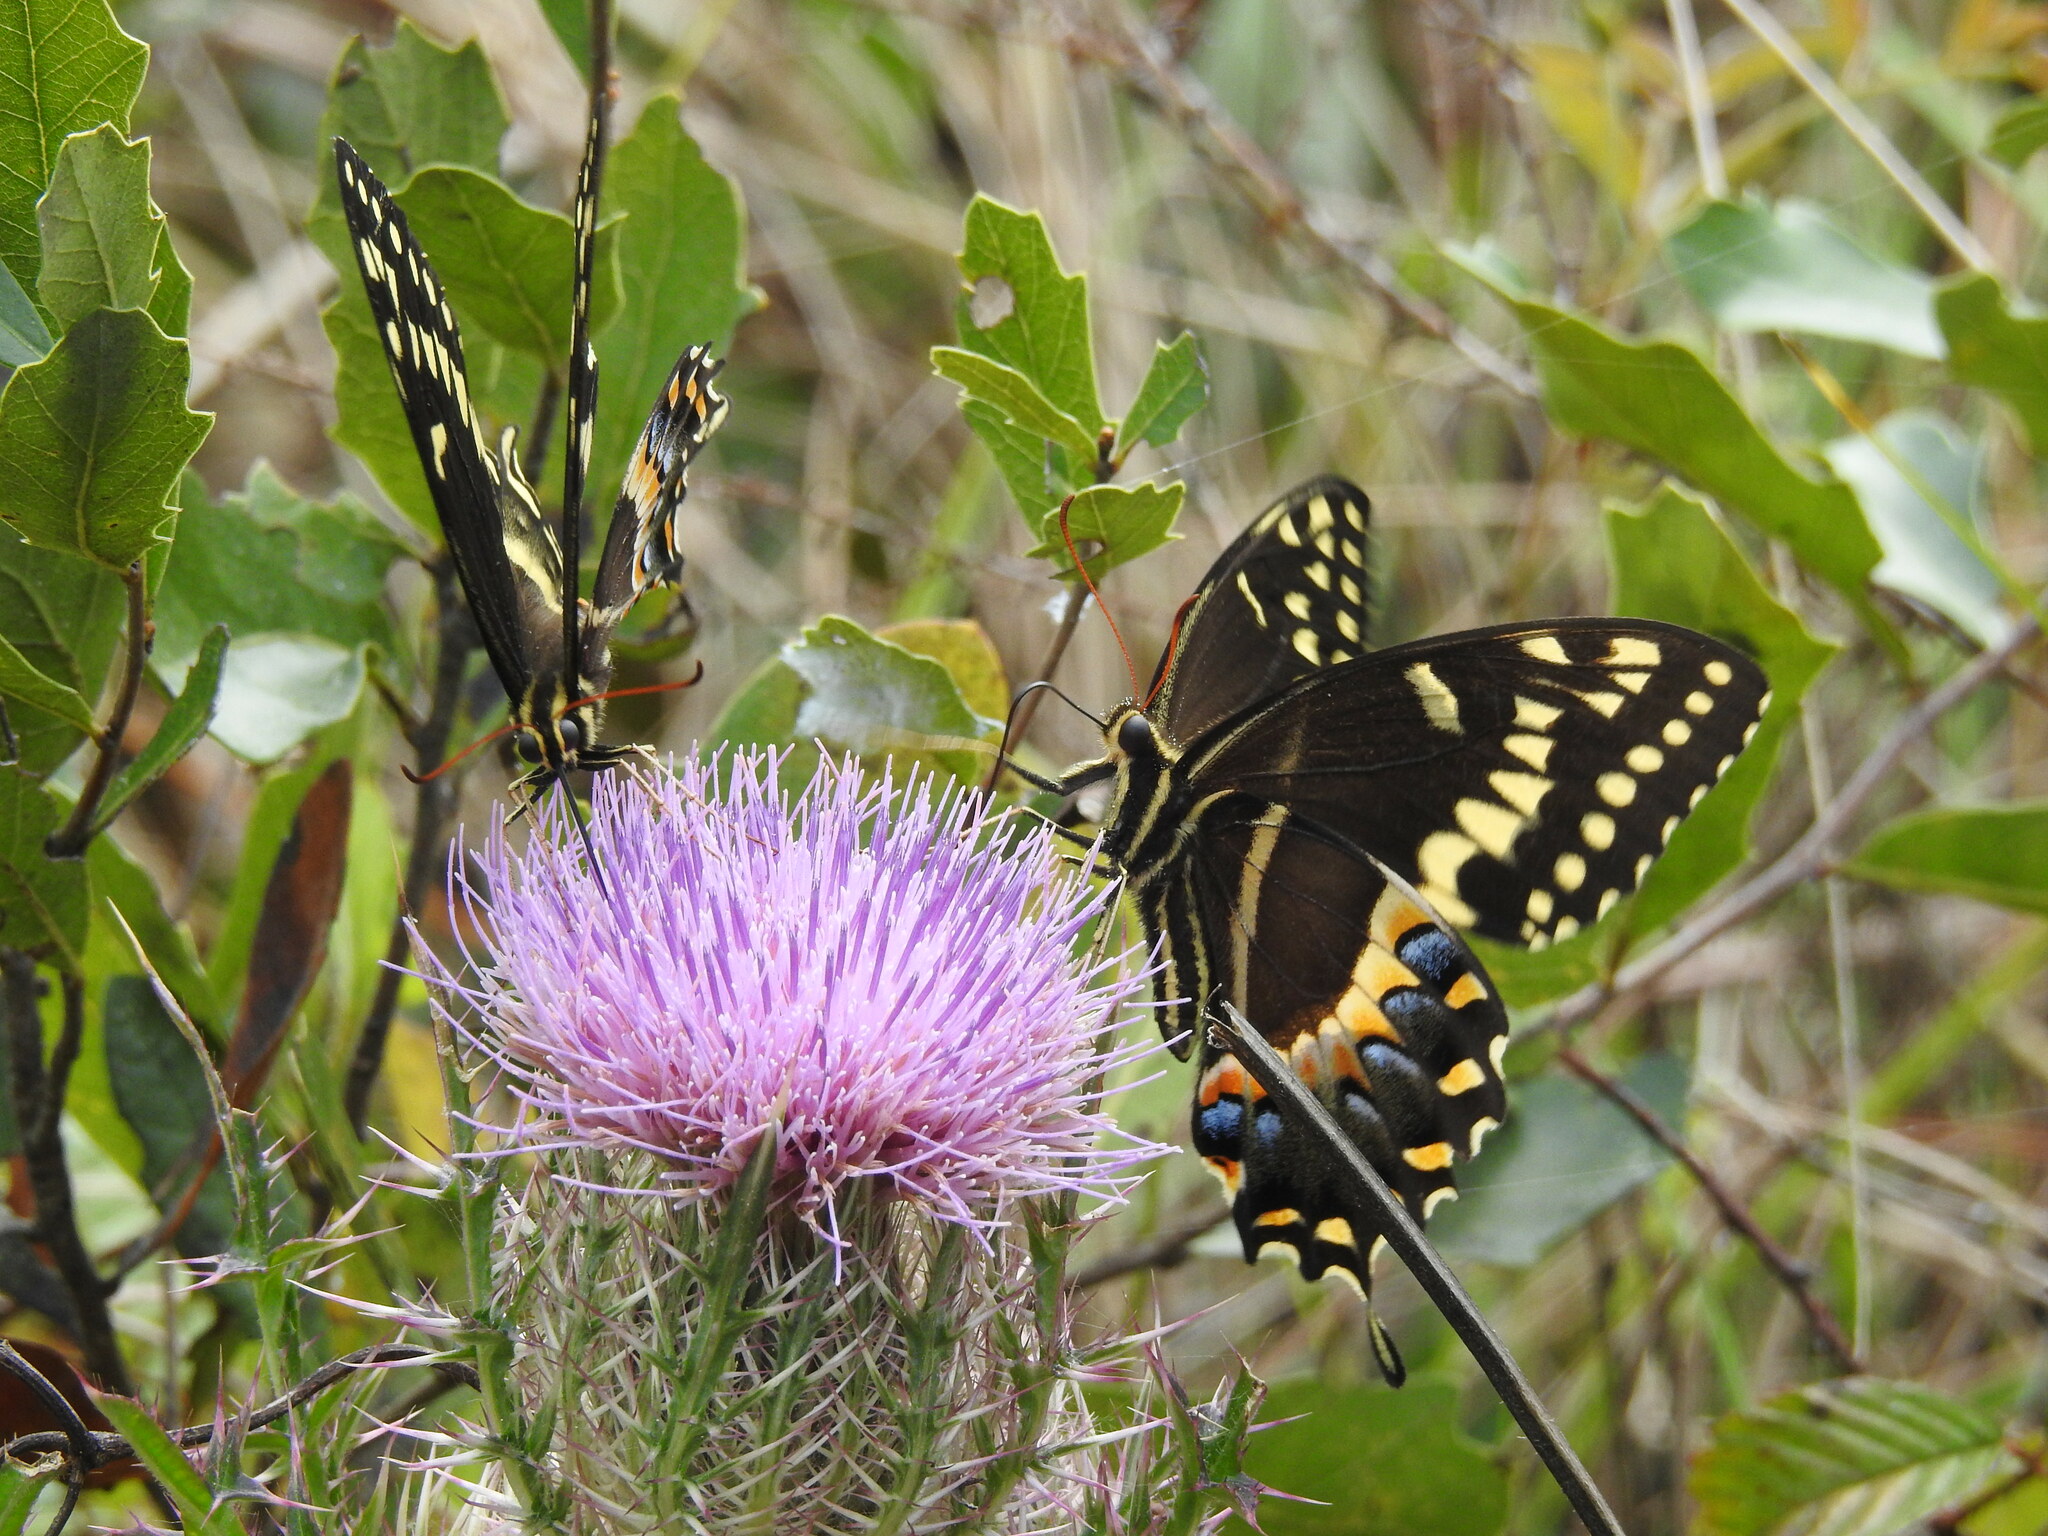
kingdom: Animalia
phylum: Arthropoda
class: Insecta
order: Lepidoptera
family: Papilionidae
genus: Papilio
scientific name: Papilio palamedes
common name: Palamedes swallowtail
